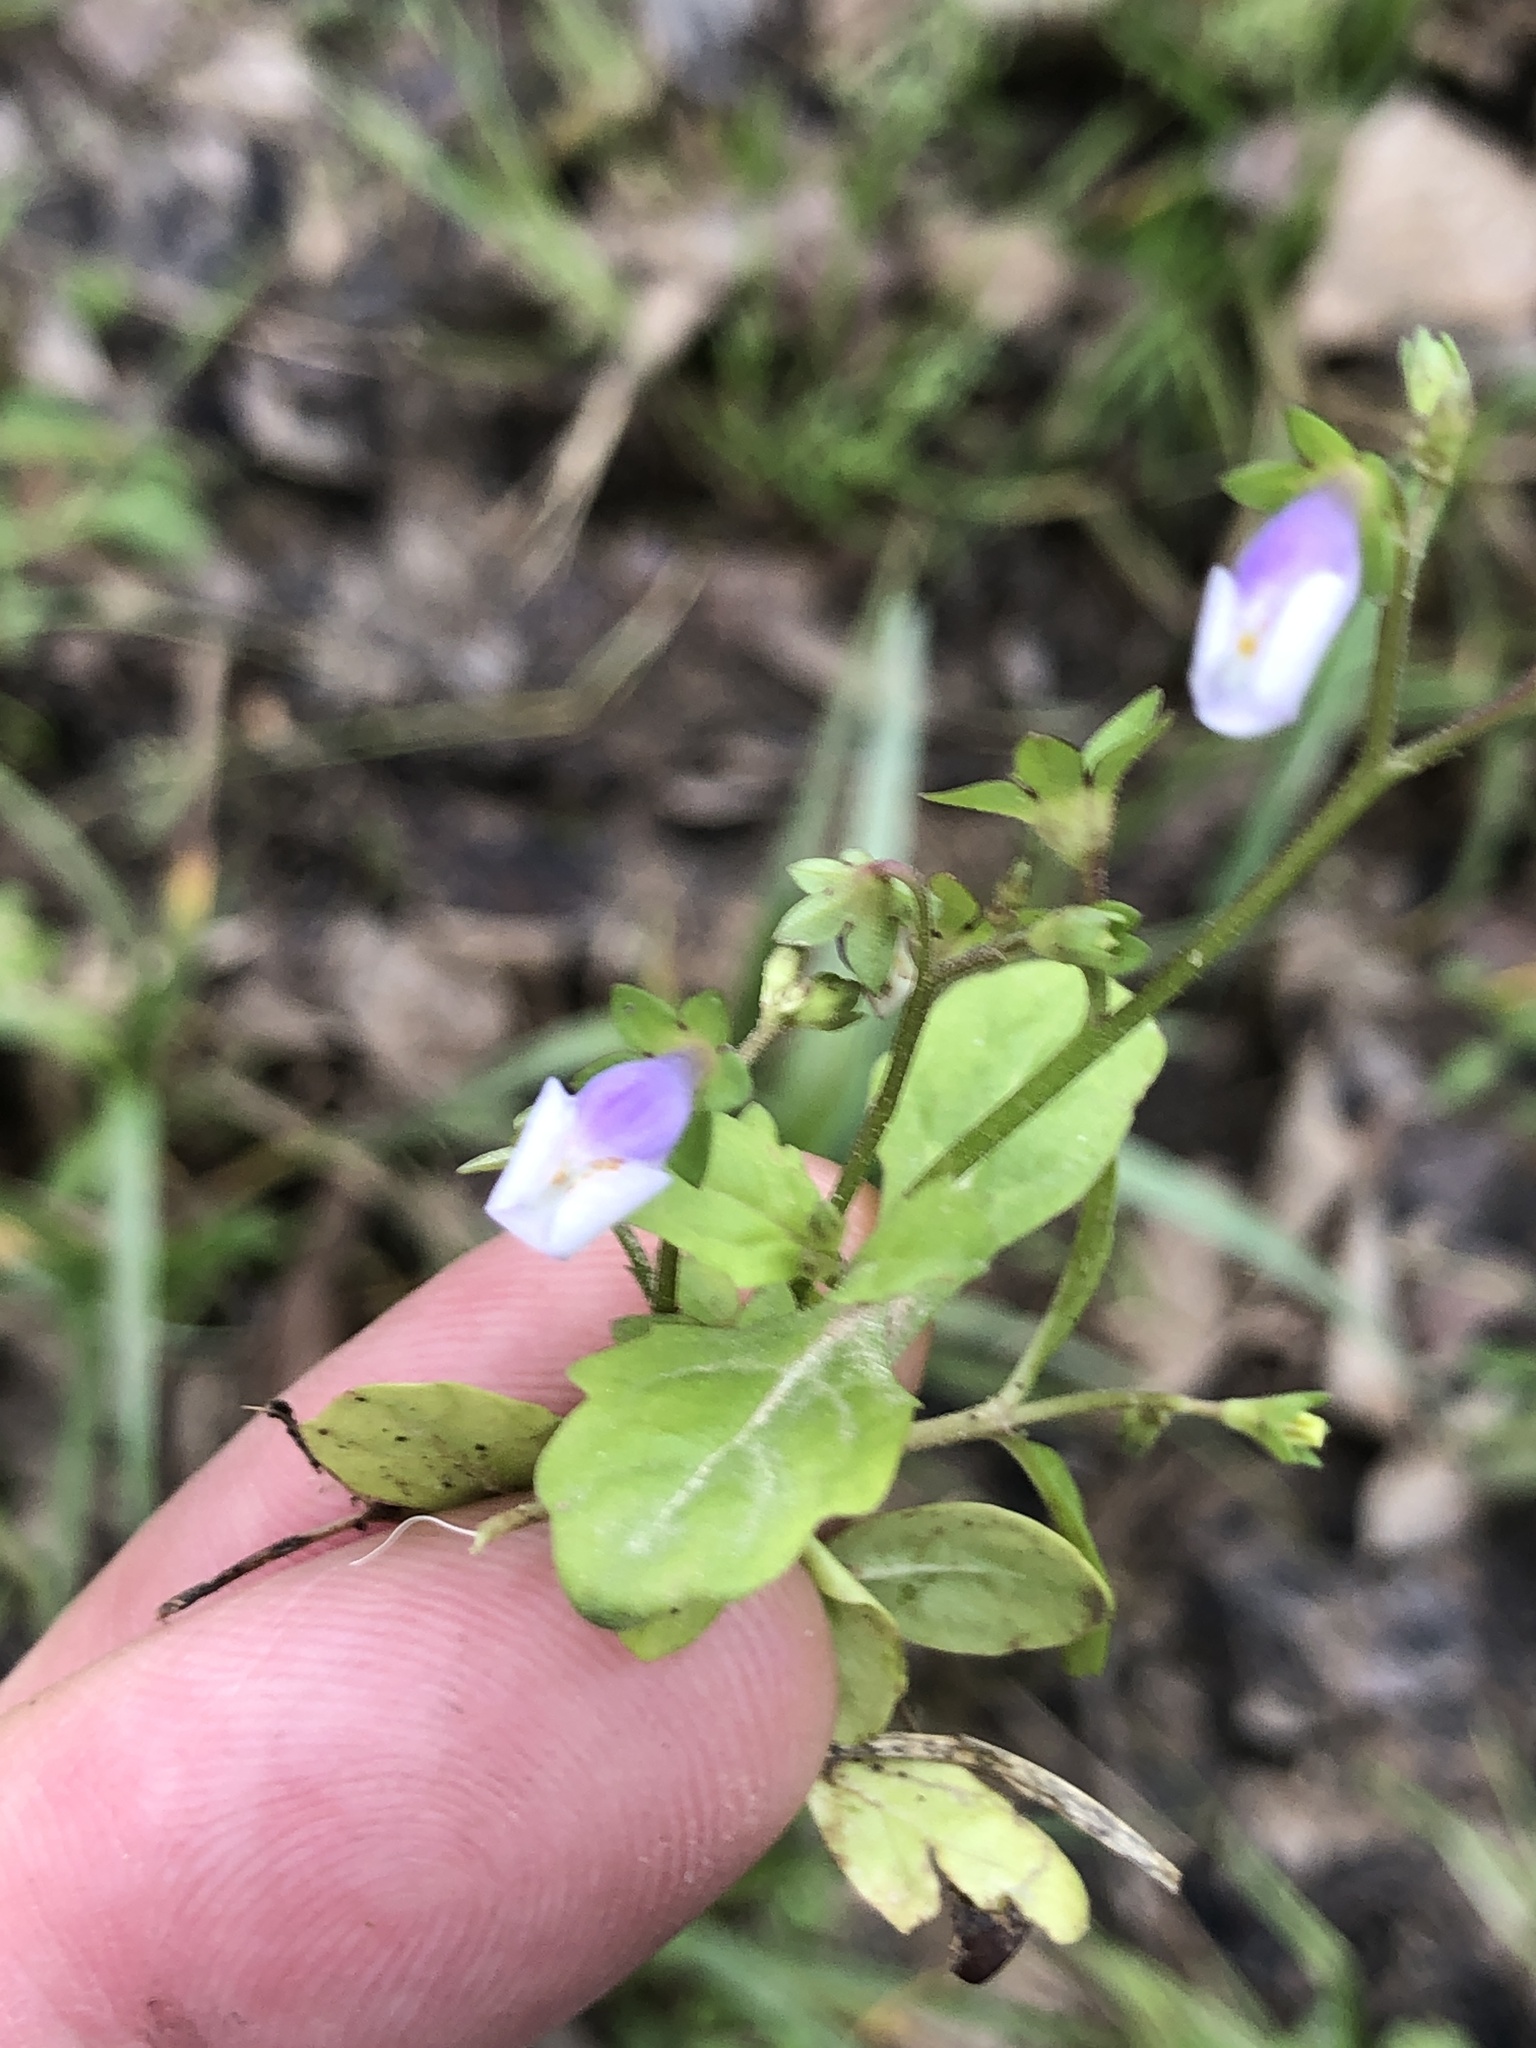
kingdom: Plantae
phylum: Tracheophyta
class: Magnoliopsida
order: Lamiales
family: Mazaceae
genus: Mazus
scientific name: Mazus pumilus
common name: Japanese mazus
